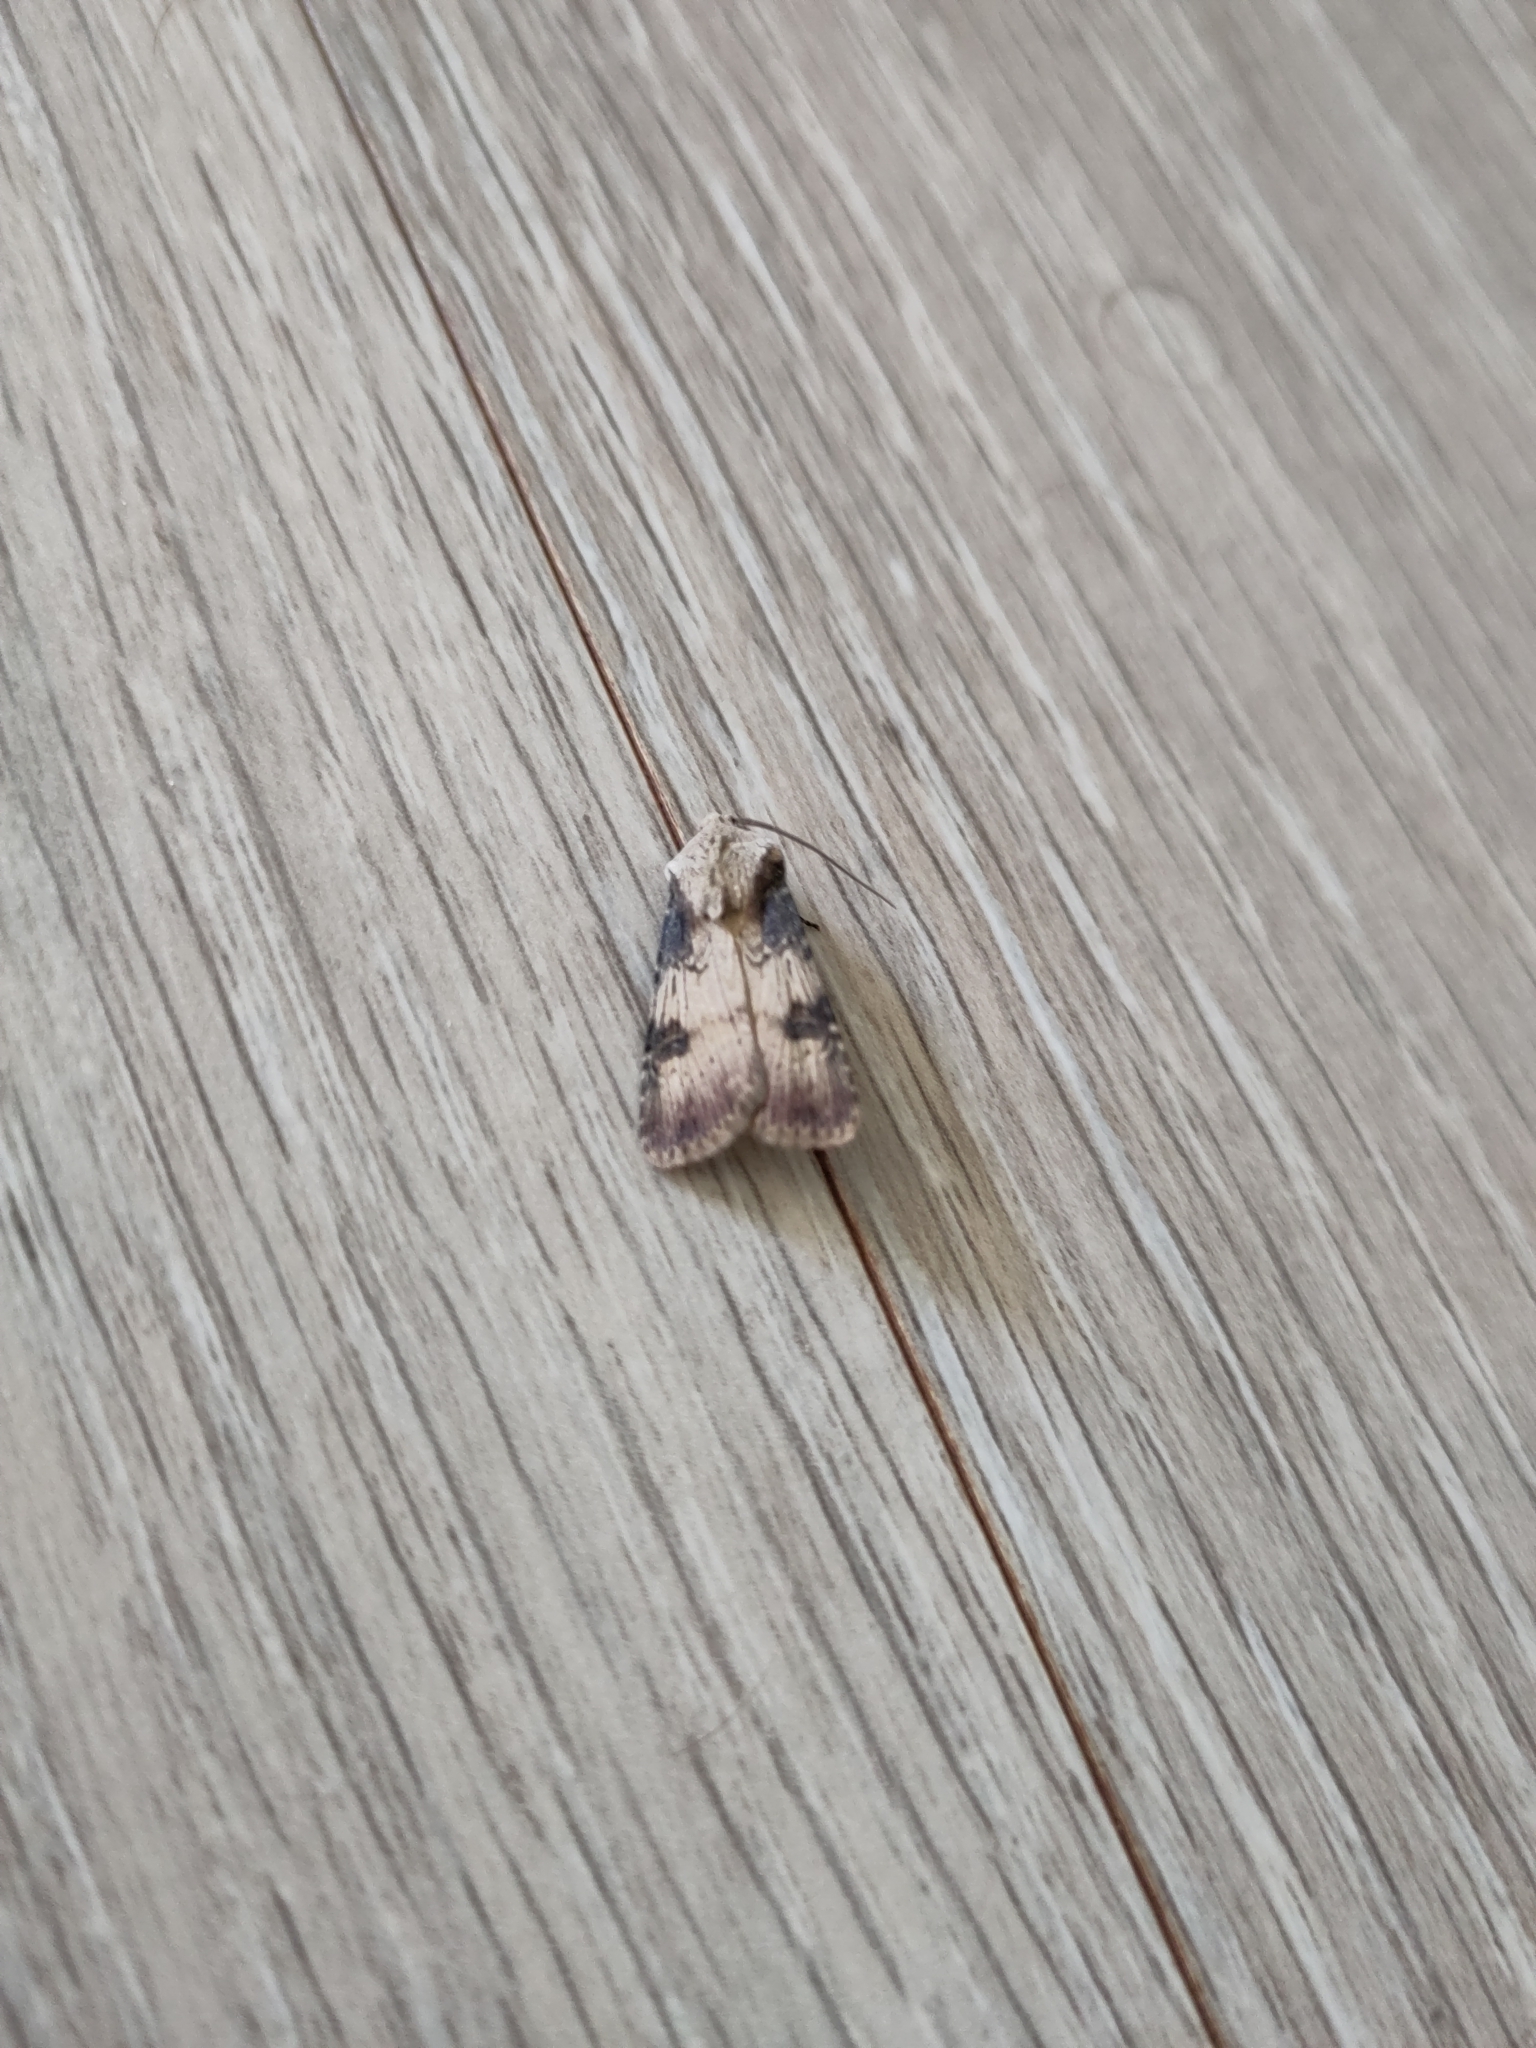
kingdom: Animalia
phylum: Arthropoda
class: Insecta
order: Lepidoptera
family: Noctuidae
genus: Agrotis
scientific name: Agrotis puta
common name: Shuttle-shaped dart
